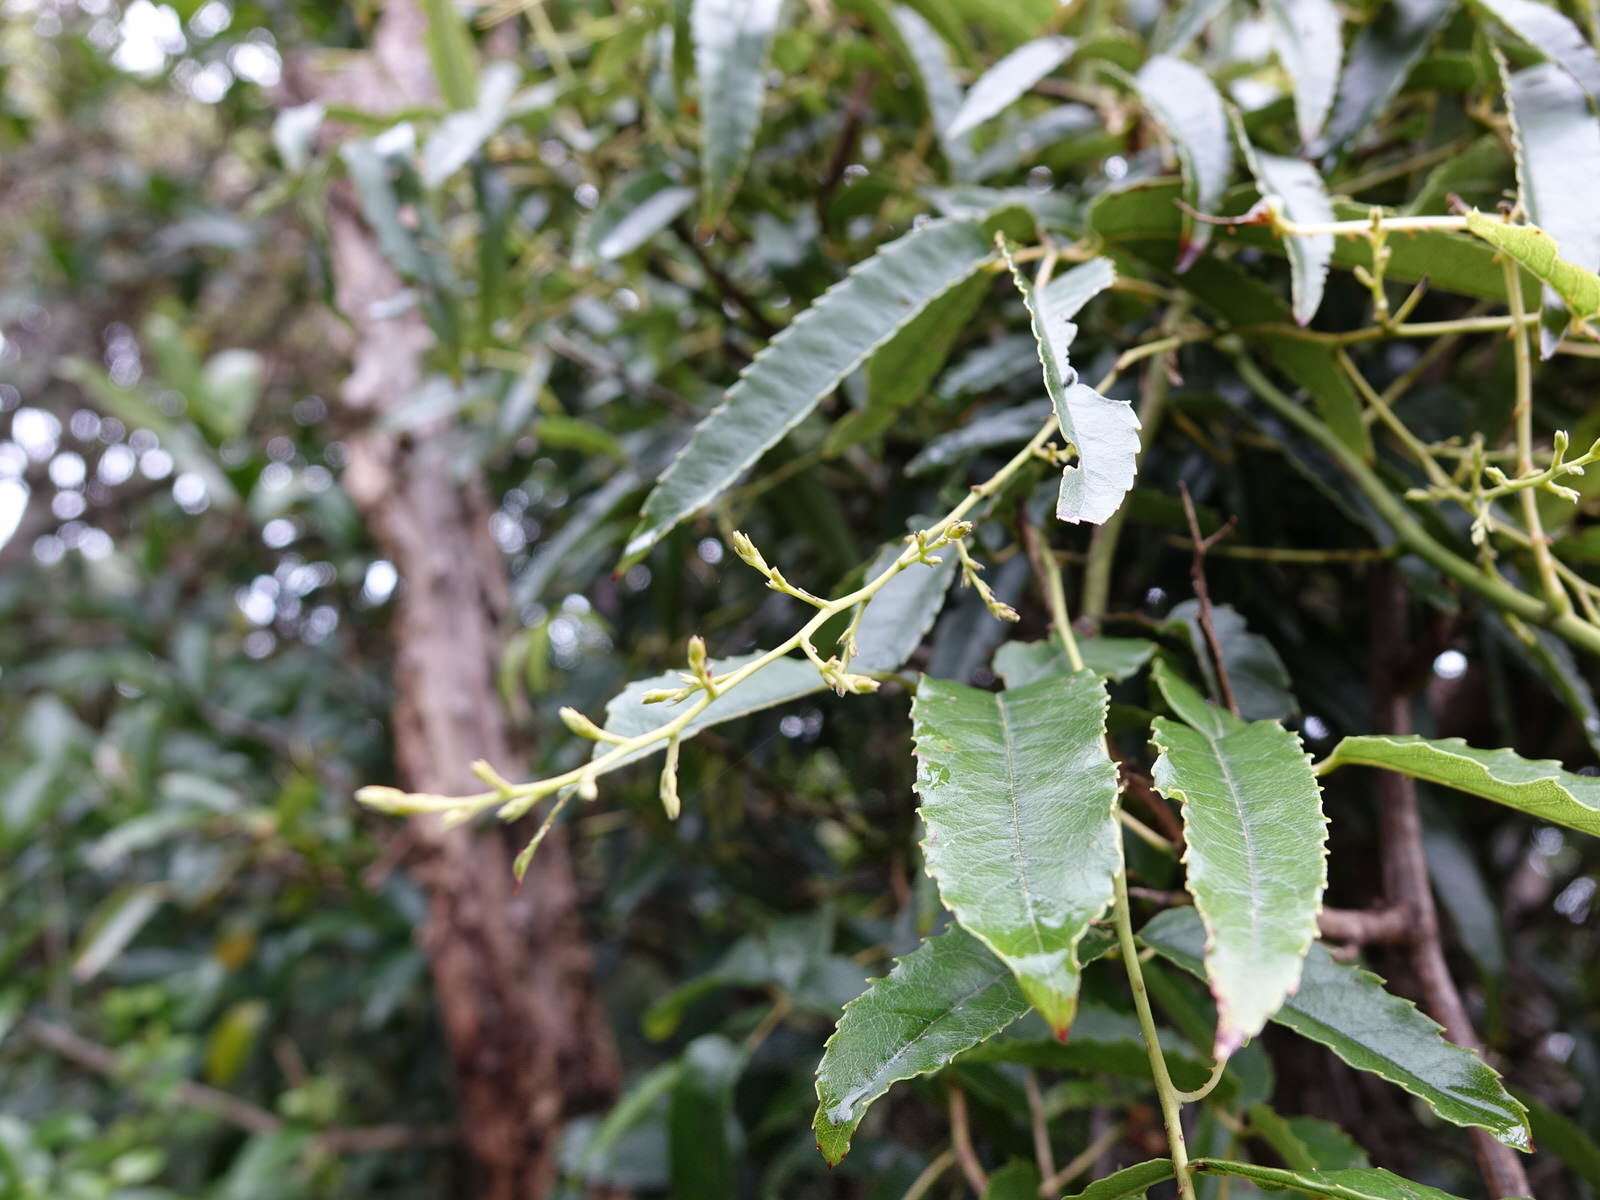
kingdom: Plantae
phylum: Tracheophyta
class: Magnoliopsida
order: Rosales
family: Rosaceae
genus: Rubus
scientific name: Rubus cissoides
